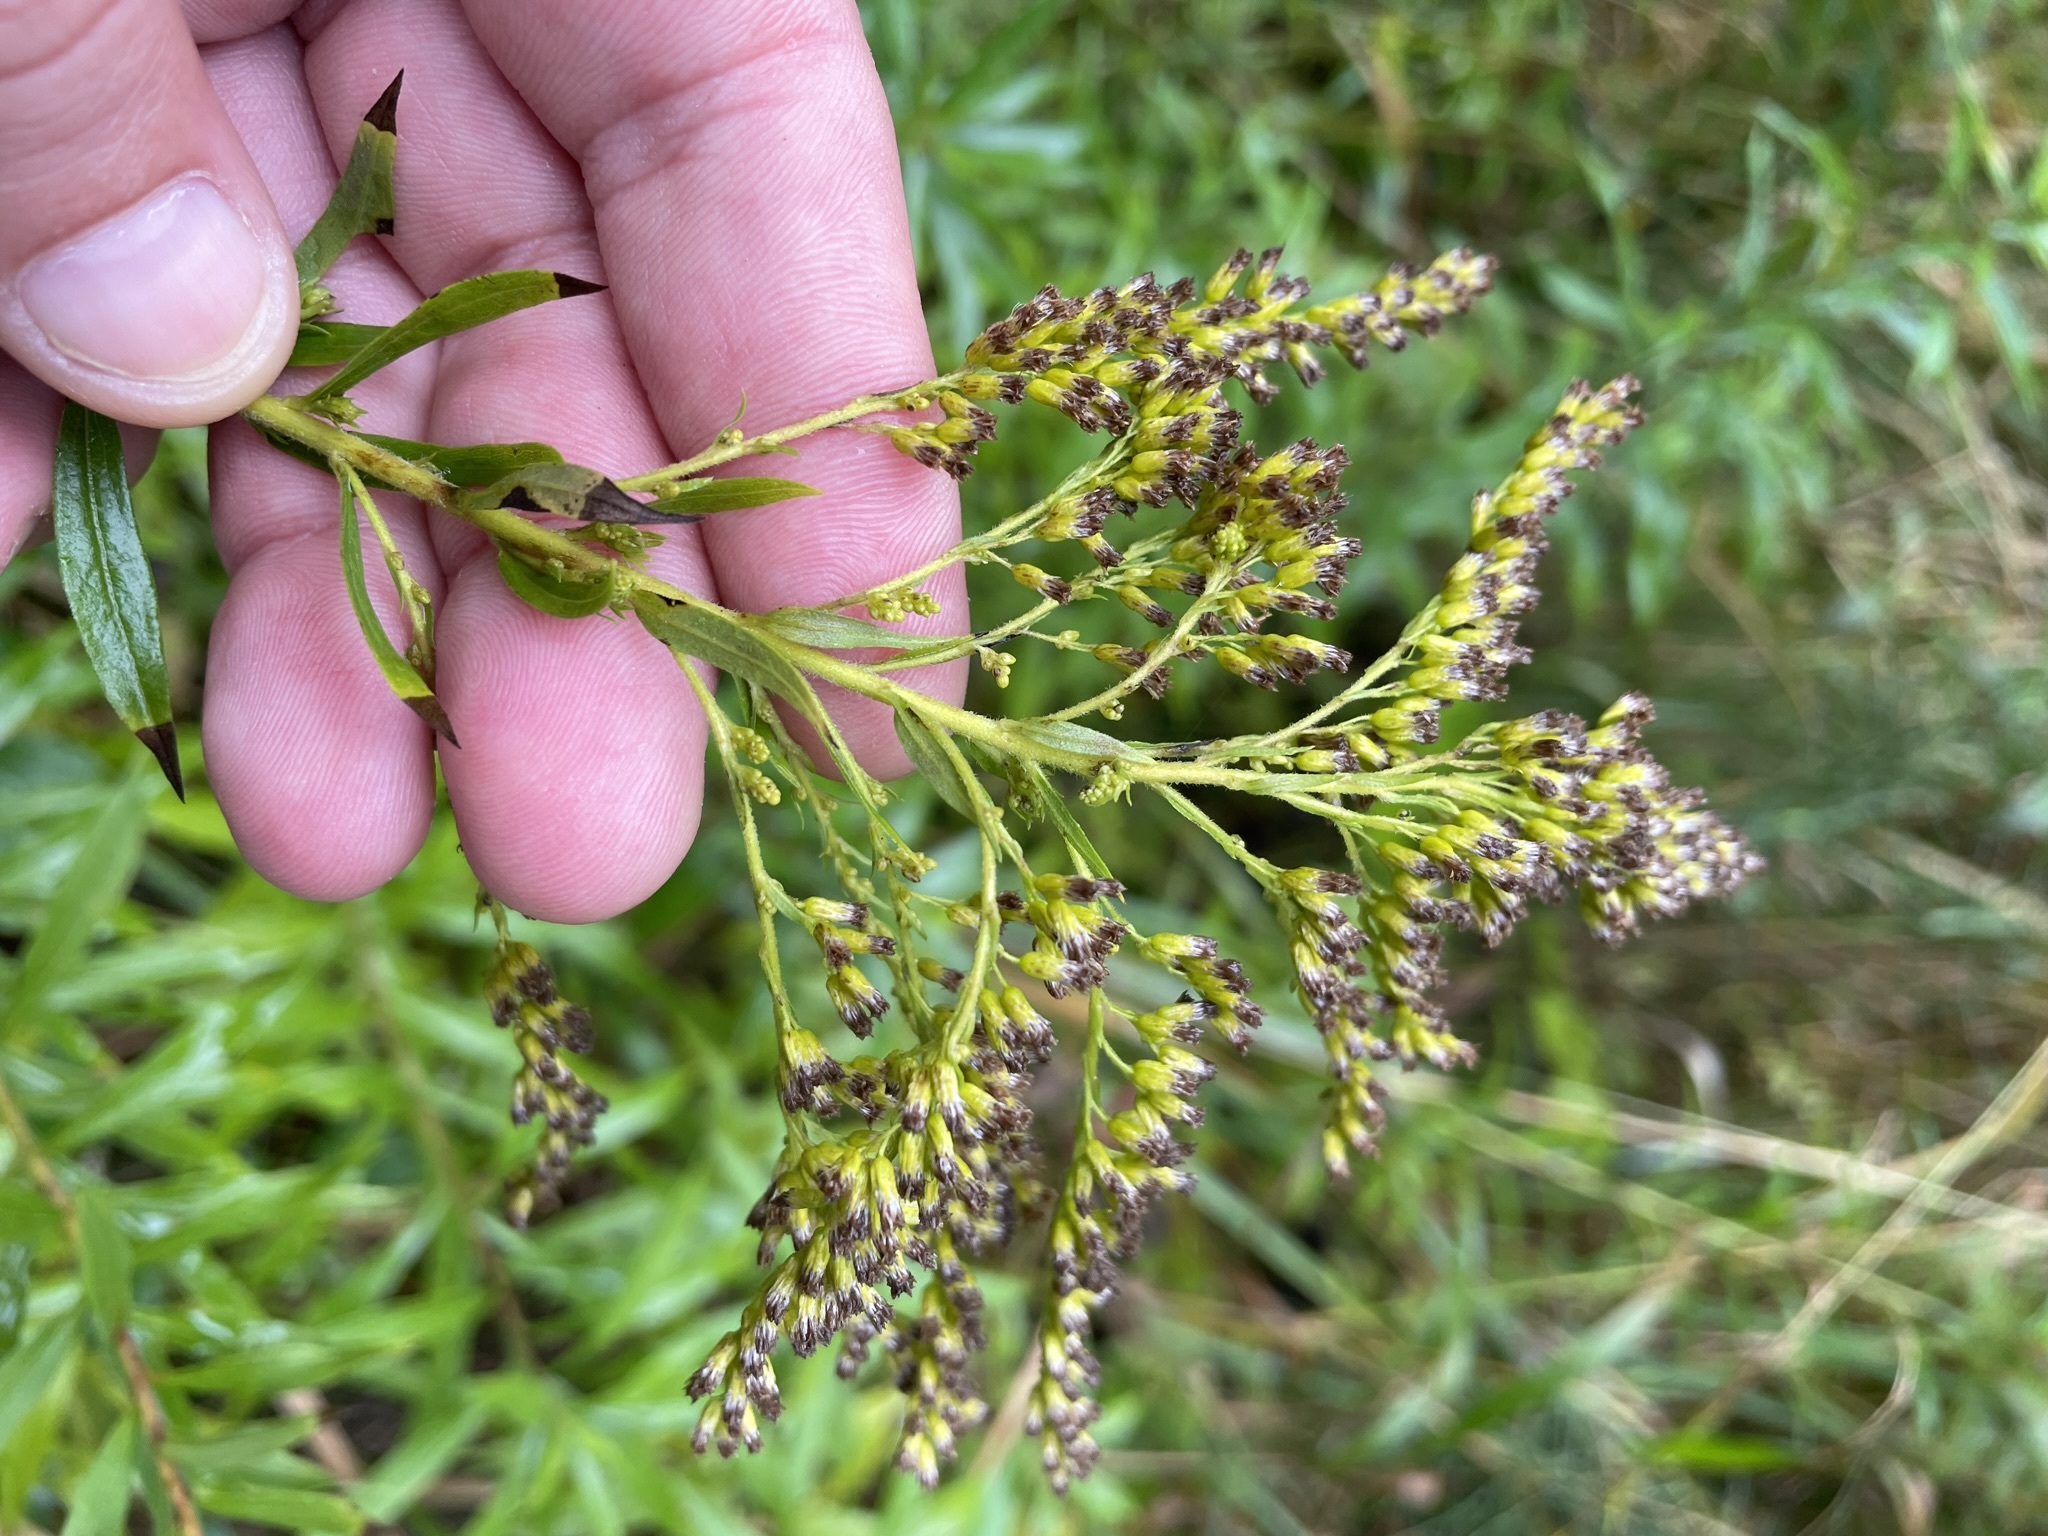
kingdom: Plantae
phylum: Tracheophyta
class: Magnoliopsida
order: Asterales
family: Asteraceae
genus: Solidago
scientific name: Solidago canadensis
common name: Canada goldenrod
